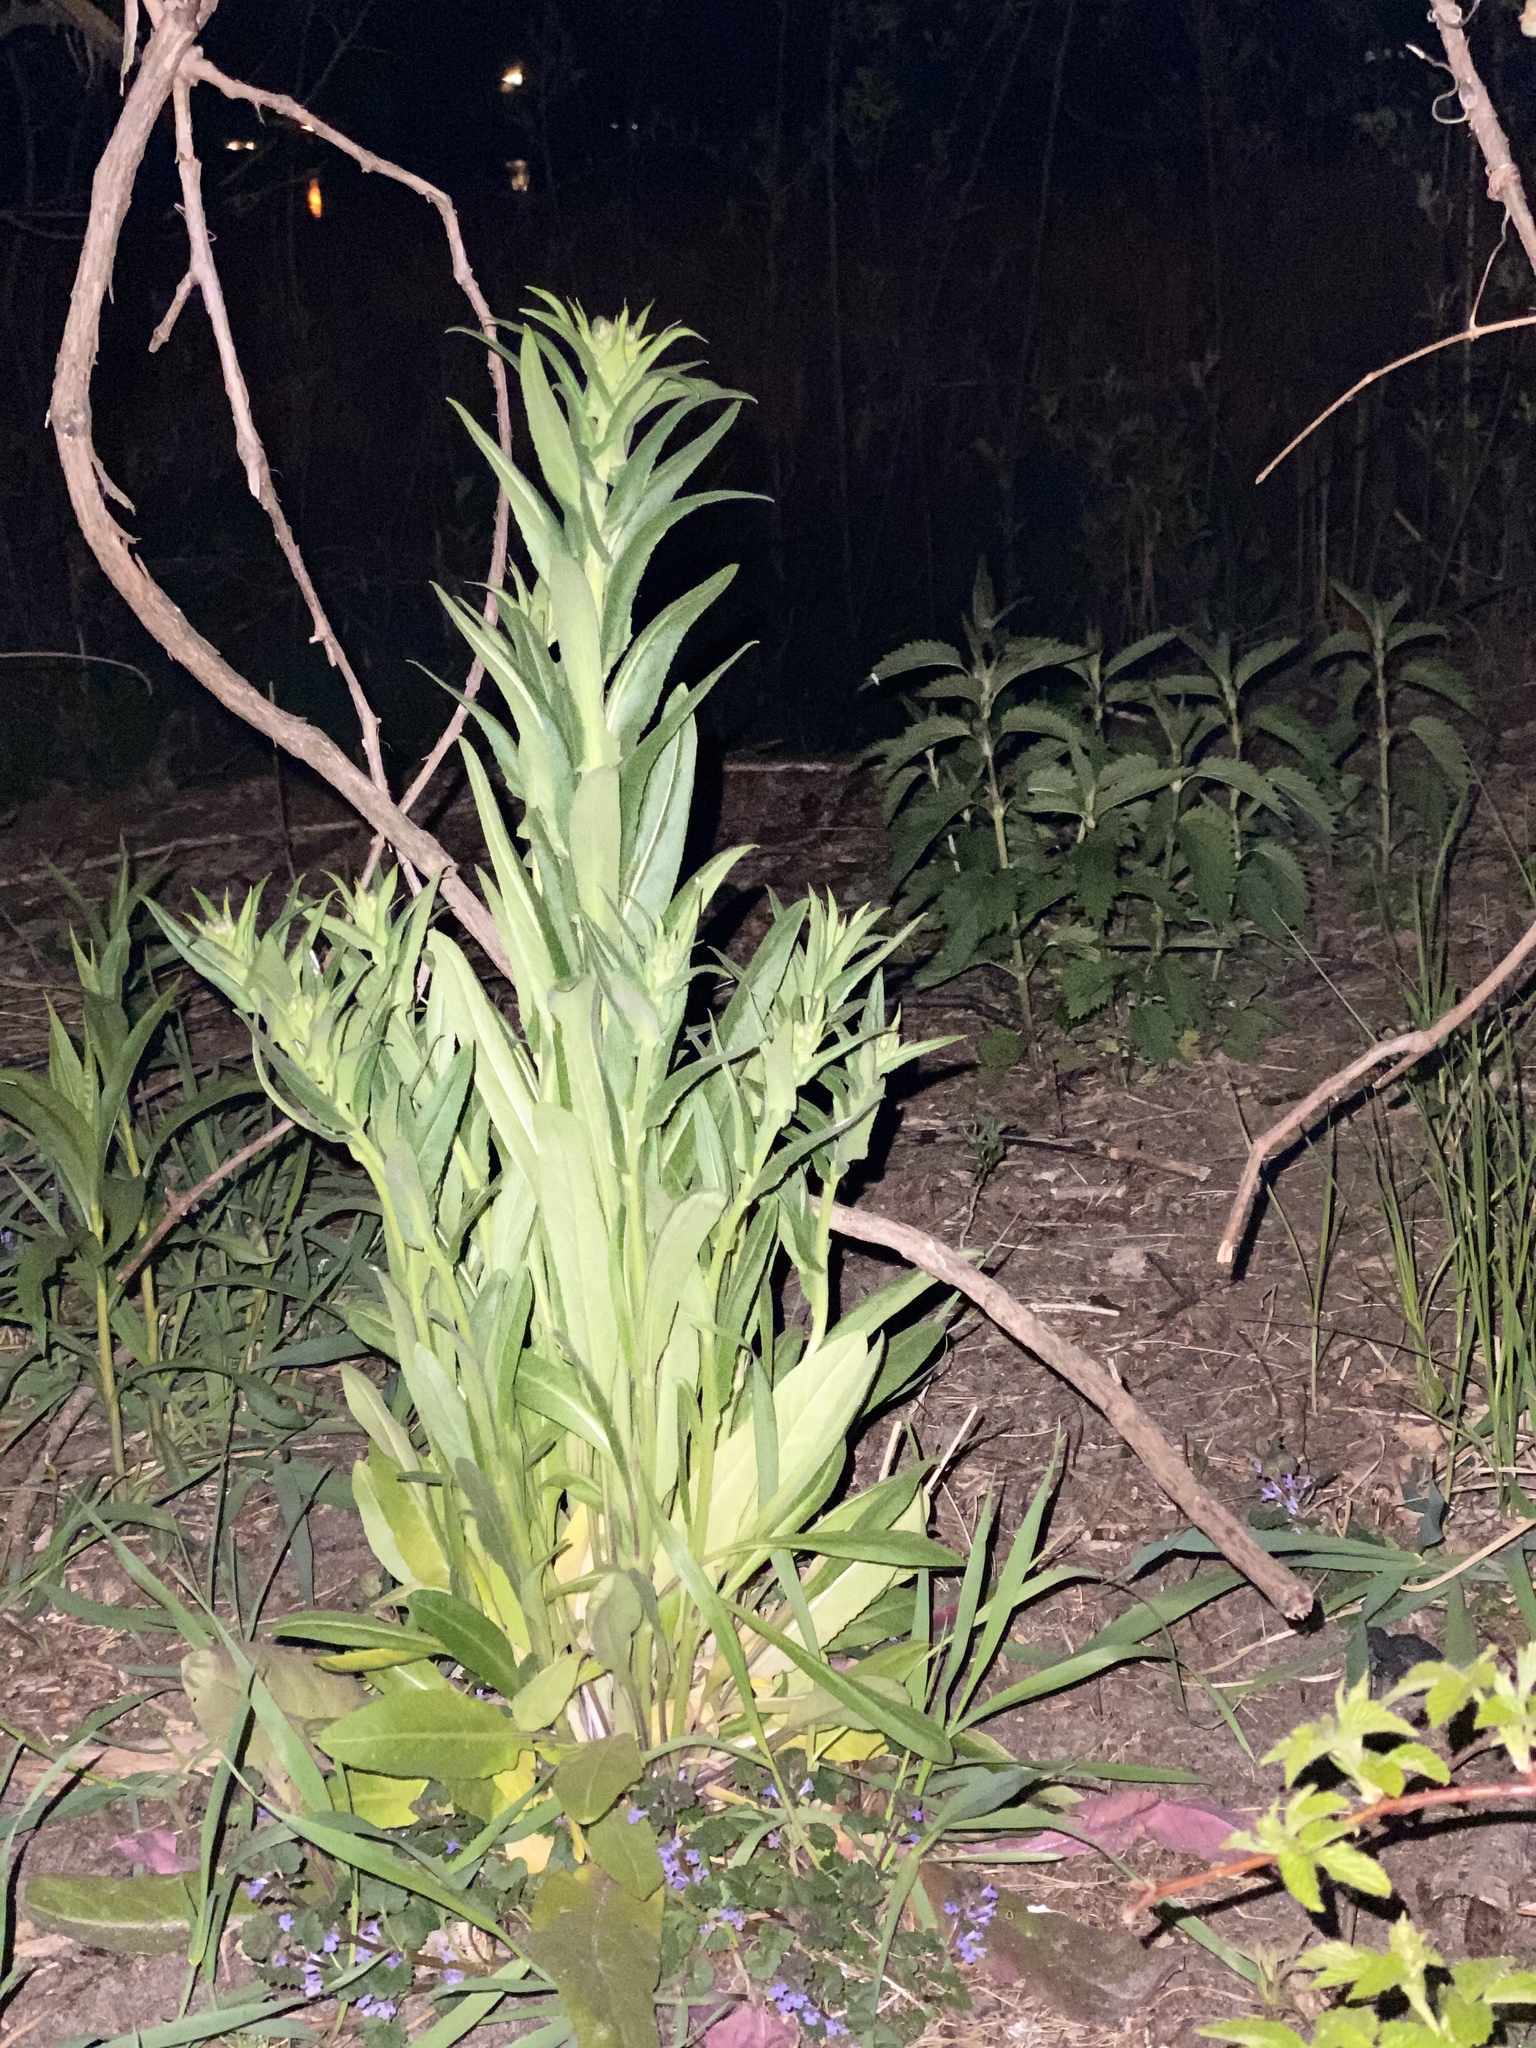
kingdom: Plantae
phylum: Tracheophyta
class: Magnoliopsida
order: Brassicales
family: Brassicaceae
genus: Hesperis
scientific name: Hesperis matronalis
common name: Dame's-violet
